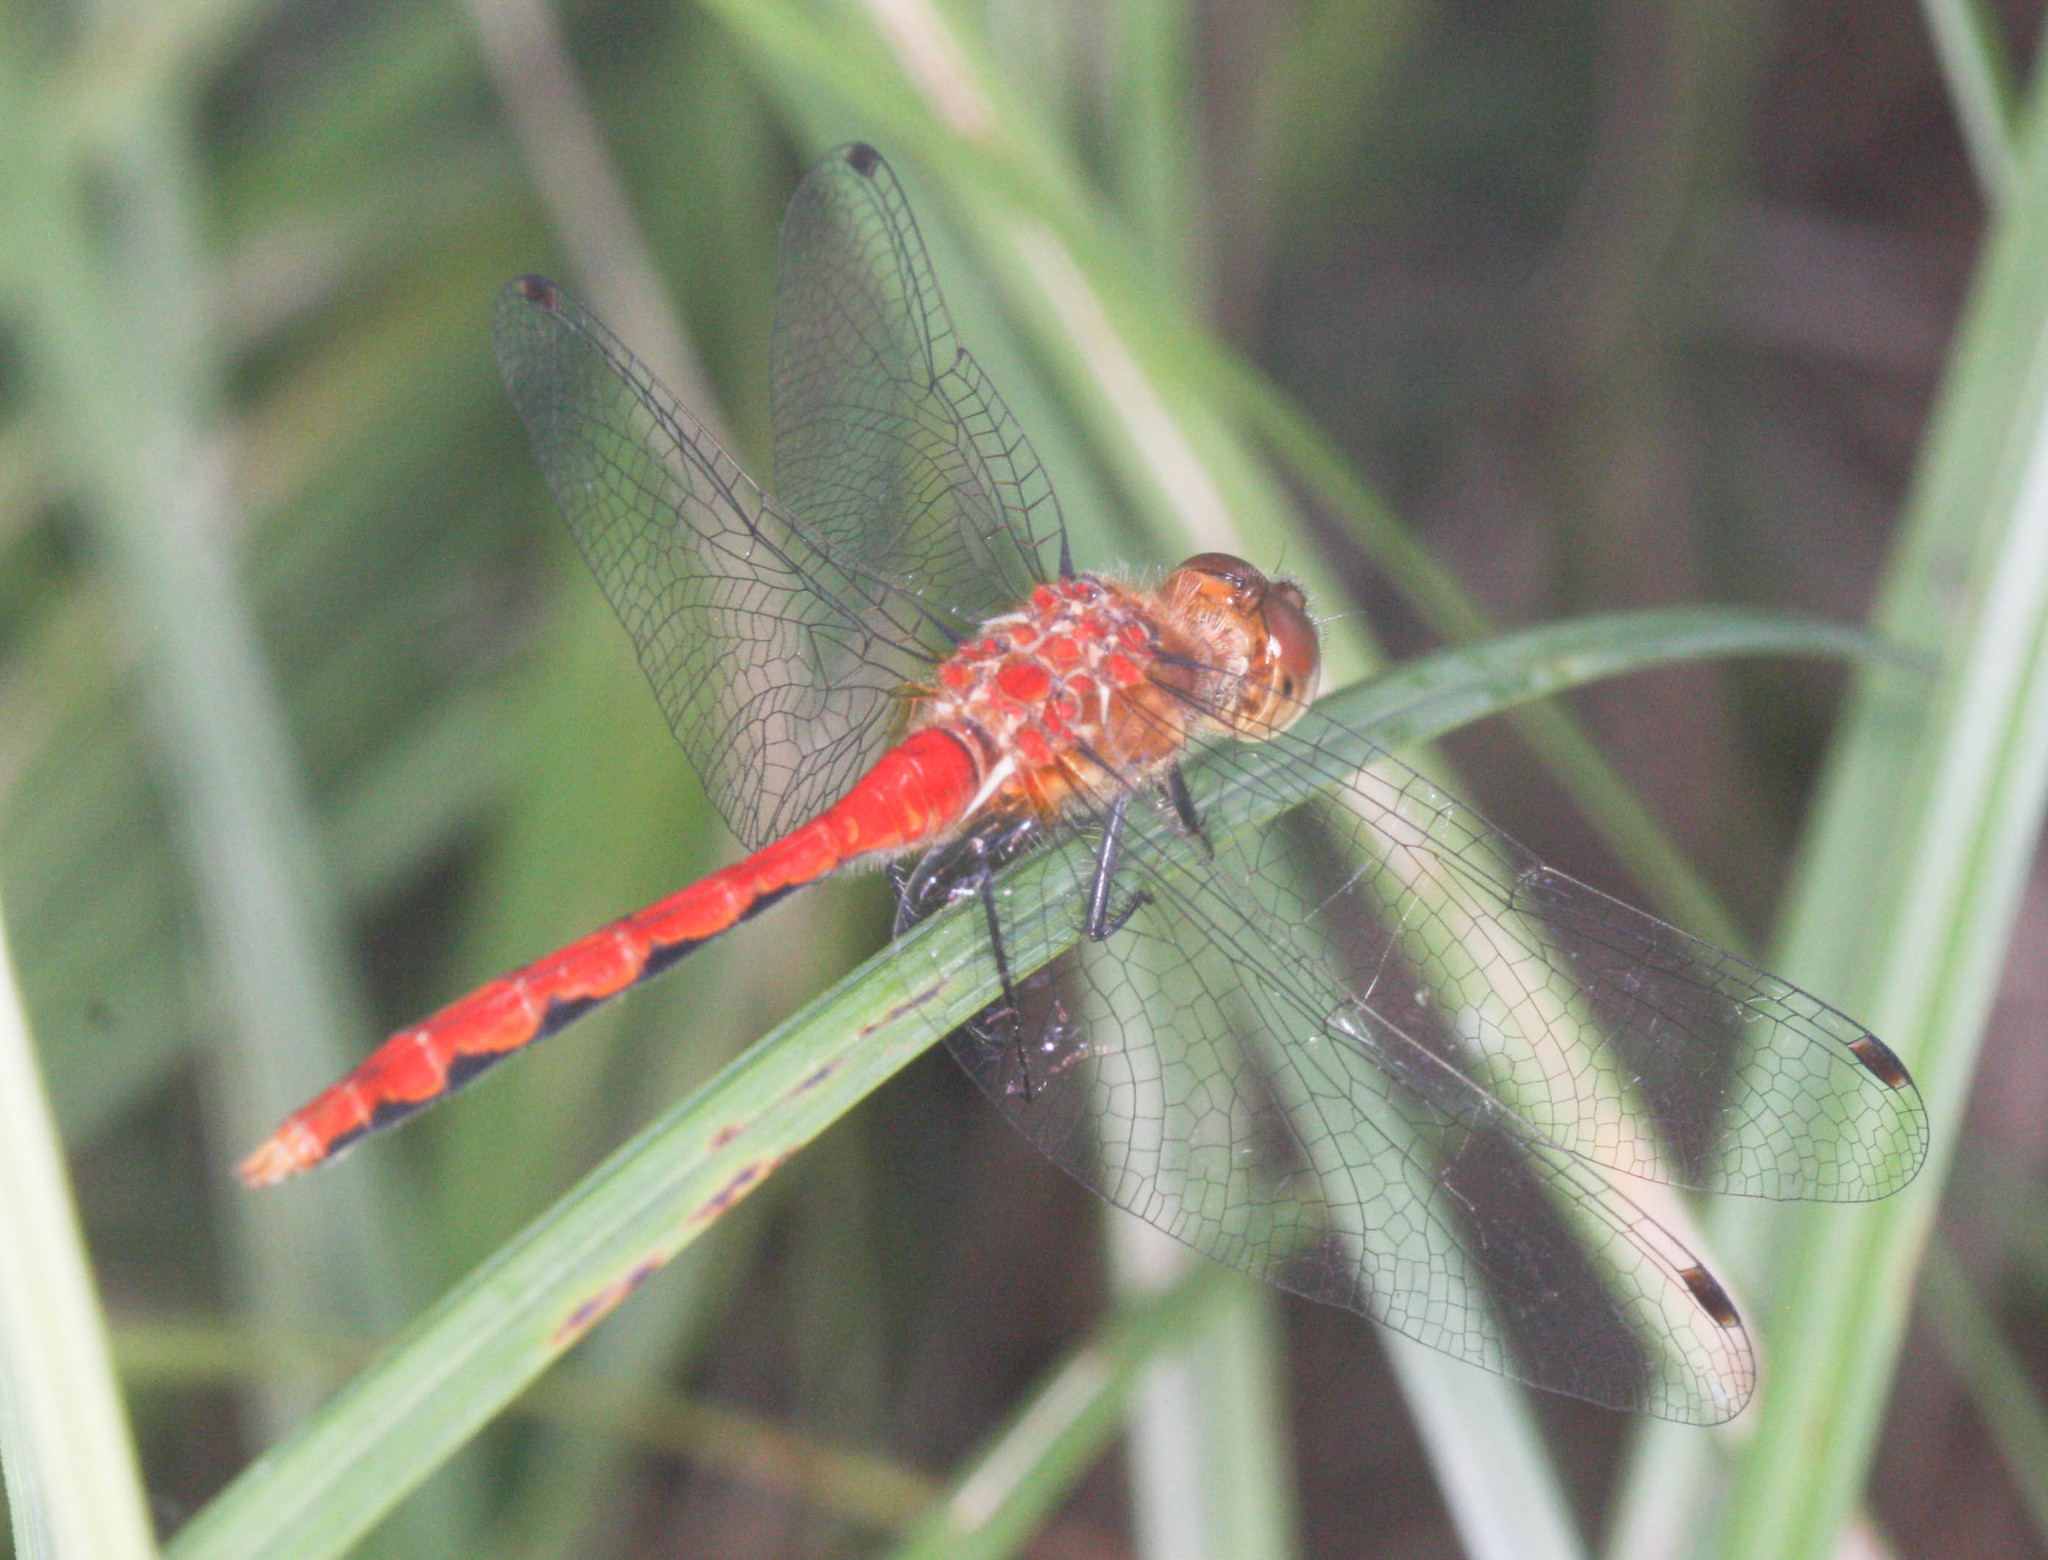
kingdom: Animalia
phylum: Arthropoda
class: Insecta
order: Odonata
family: Libellulidae
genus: Sympetrum
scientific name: Sympetrum obtrusum
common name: White-faced meadowhawk
